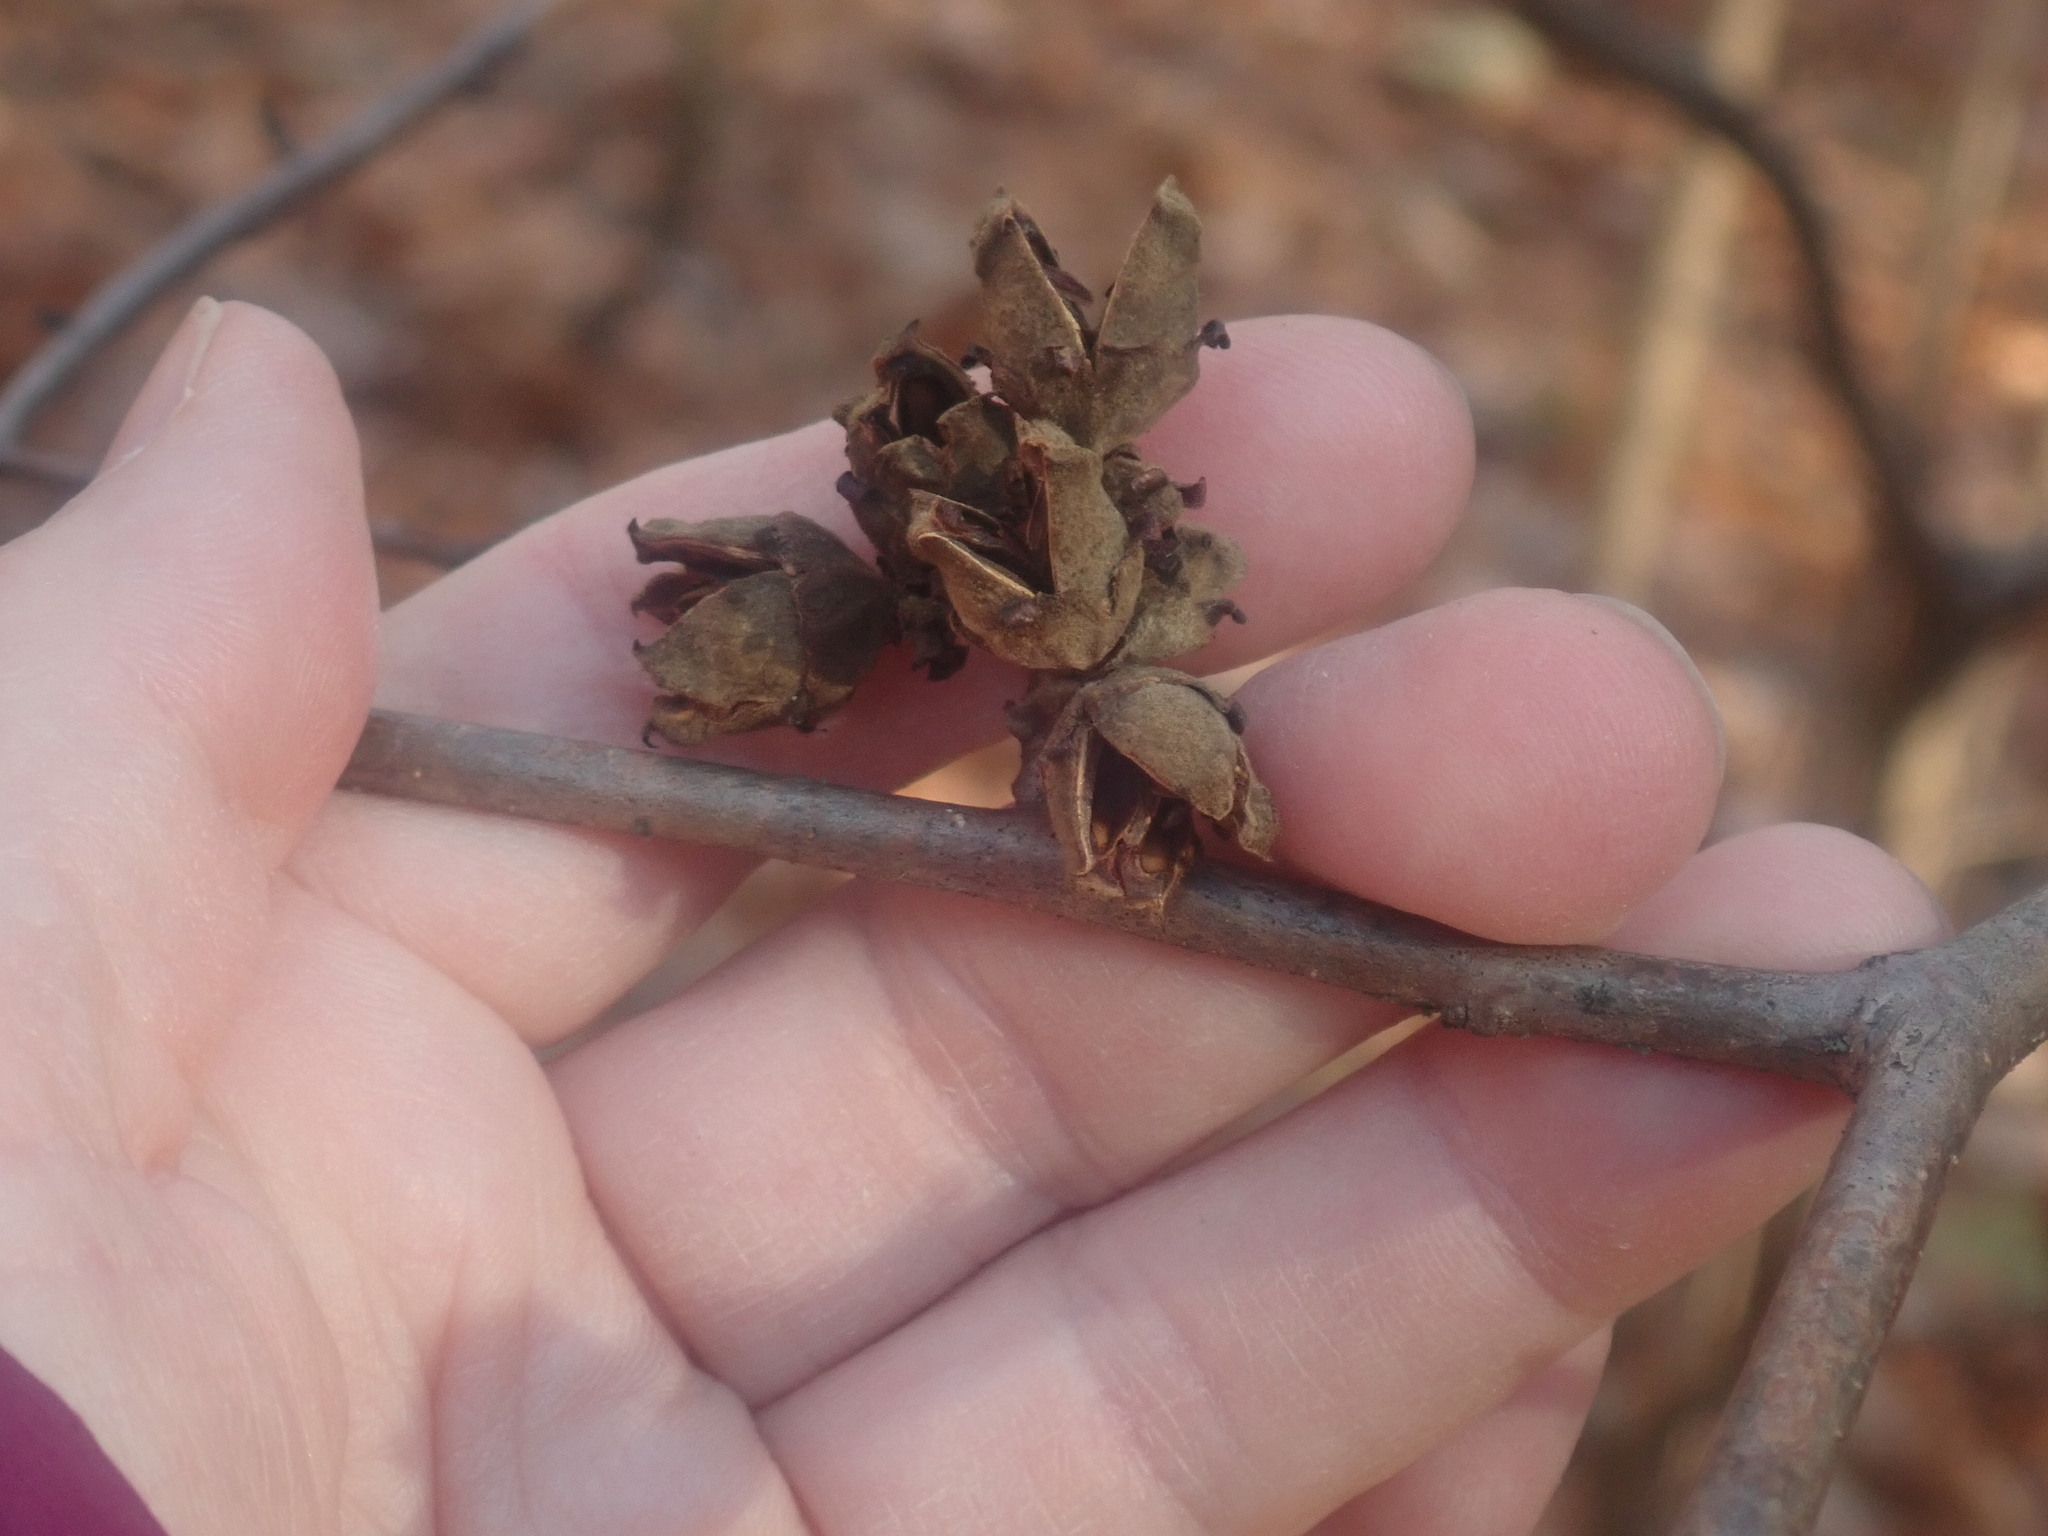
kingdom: Plantae
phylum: Tracheophyta
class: Magnoliopsida
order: Saxifragales
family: Hamamelidaceae
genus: Hamamelis
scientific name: Hamamelis virginiana
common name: Witch-hazel
